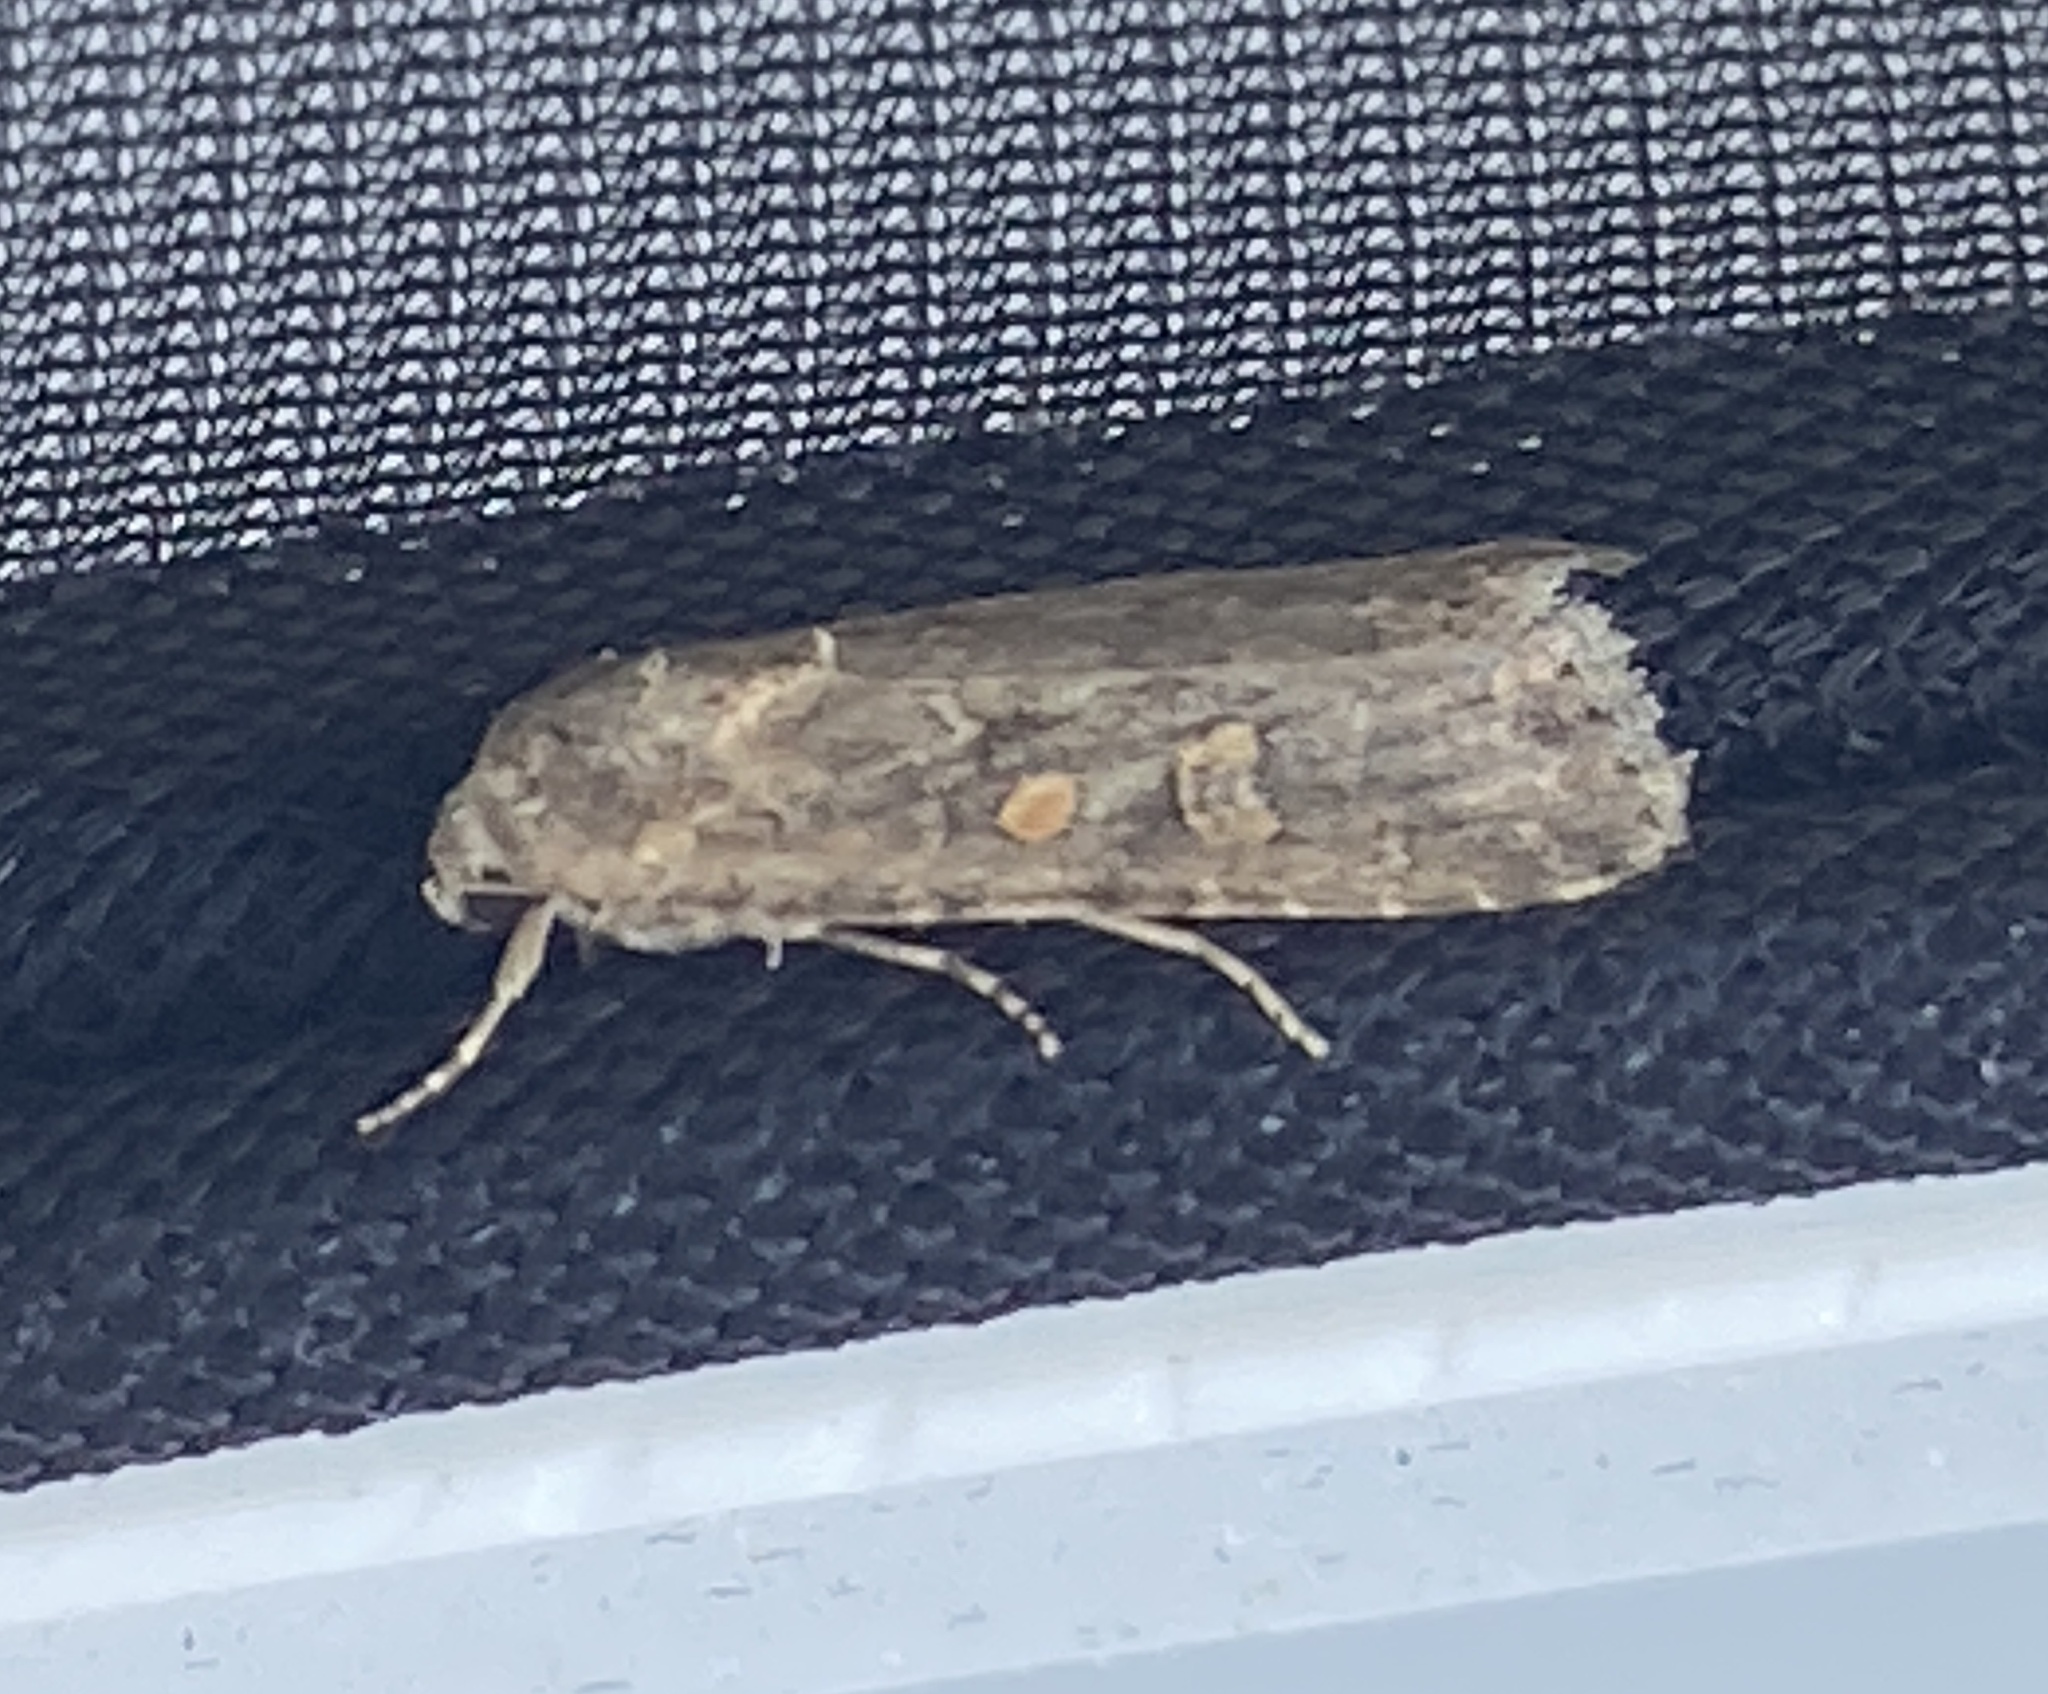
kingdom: Animalia
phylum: Arthropoda
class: Insecta
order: Lepidoptera
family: Noctuidae
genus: Spodoptera
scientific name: Spodoptera exigua
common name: Beet armyworm
